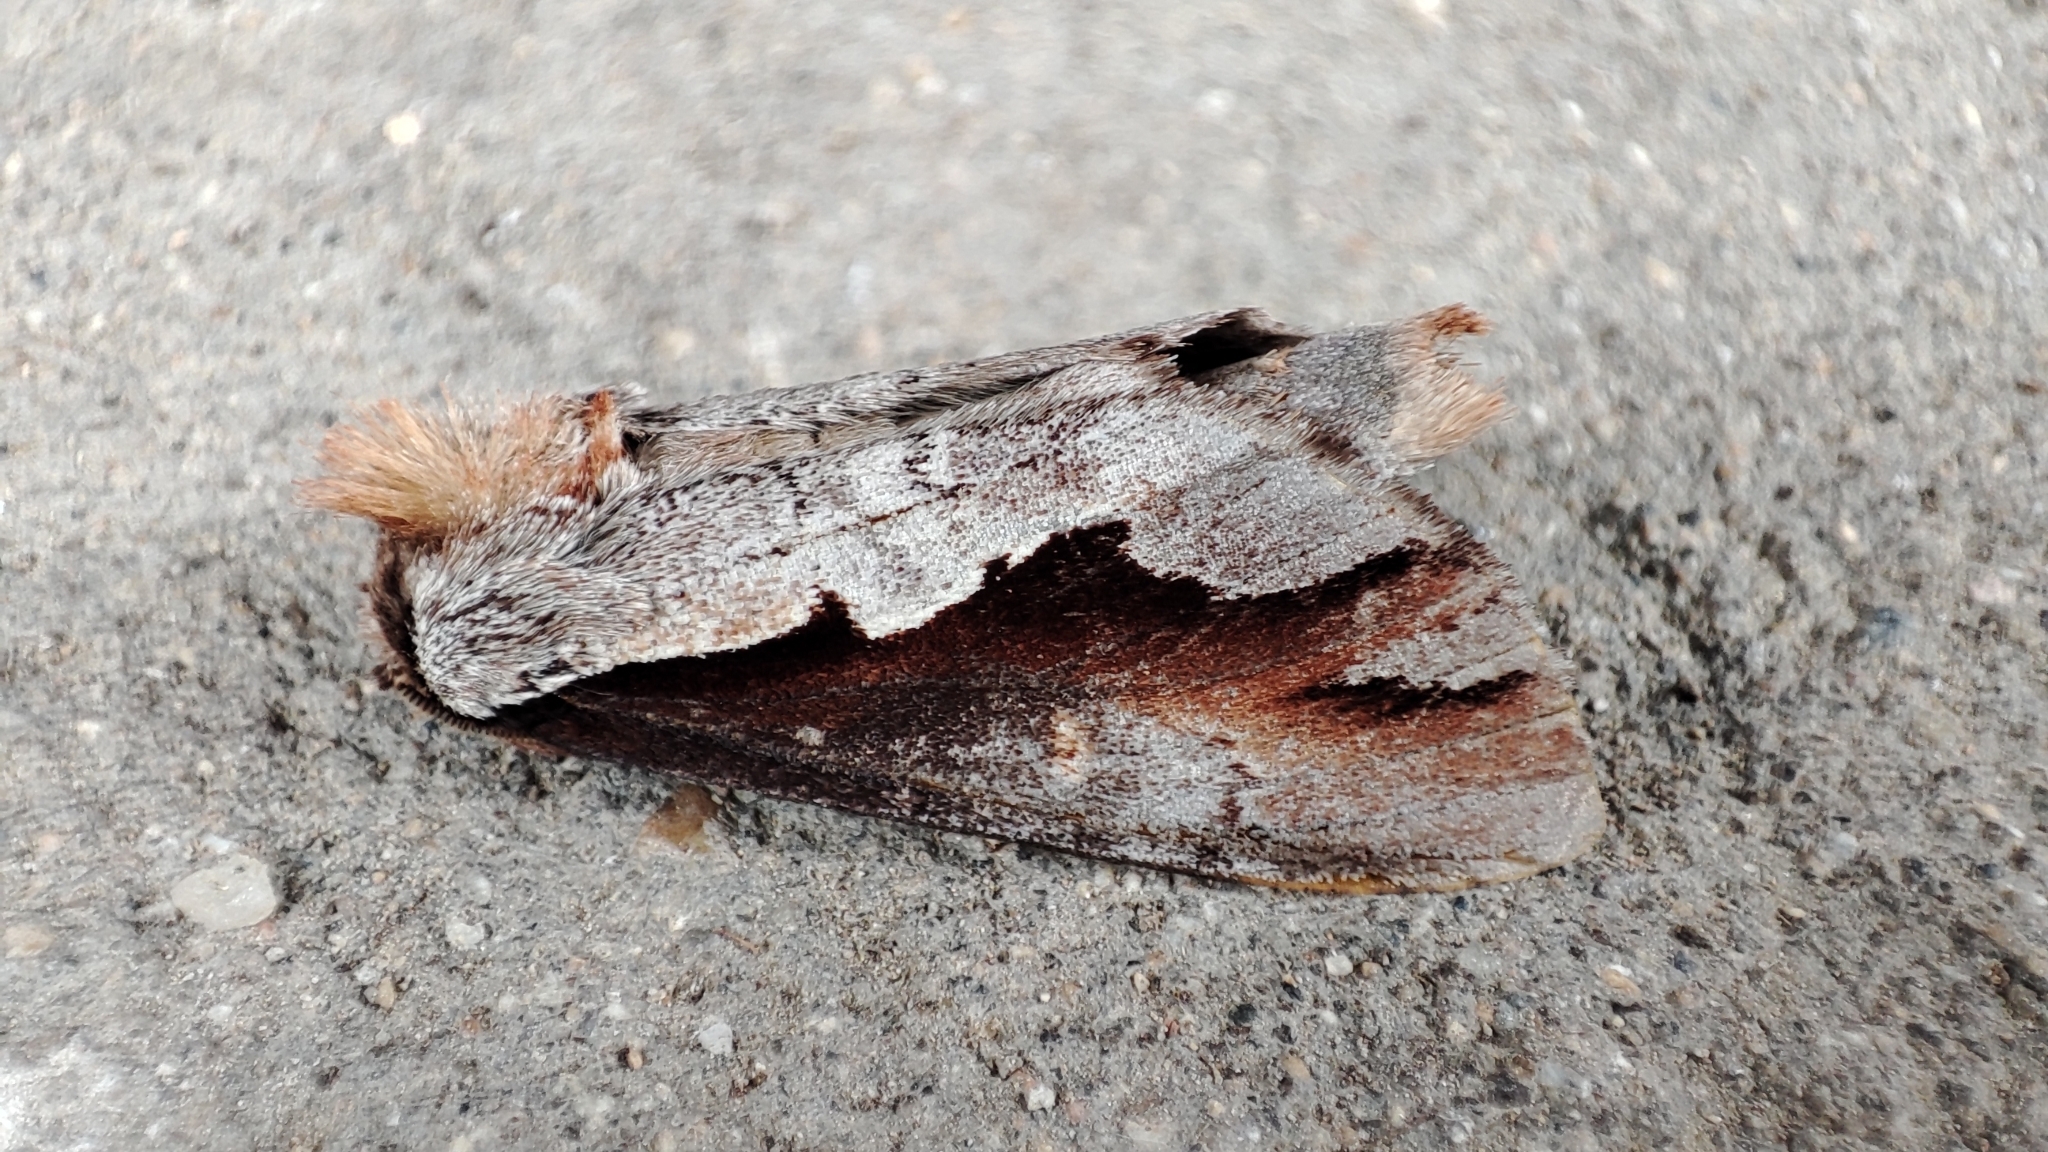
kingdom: Animalia
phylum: Arthropoda
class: Insecta
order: Lepidoptera
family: Notodontidae
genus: Nerice
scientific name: Nerice leechi
